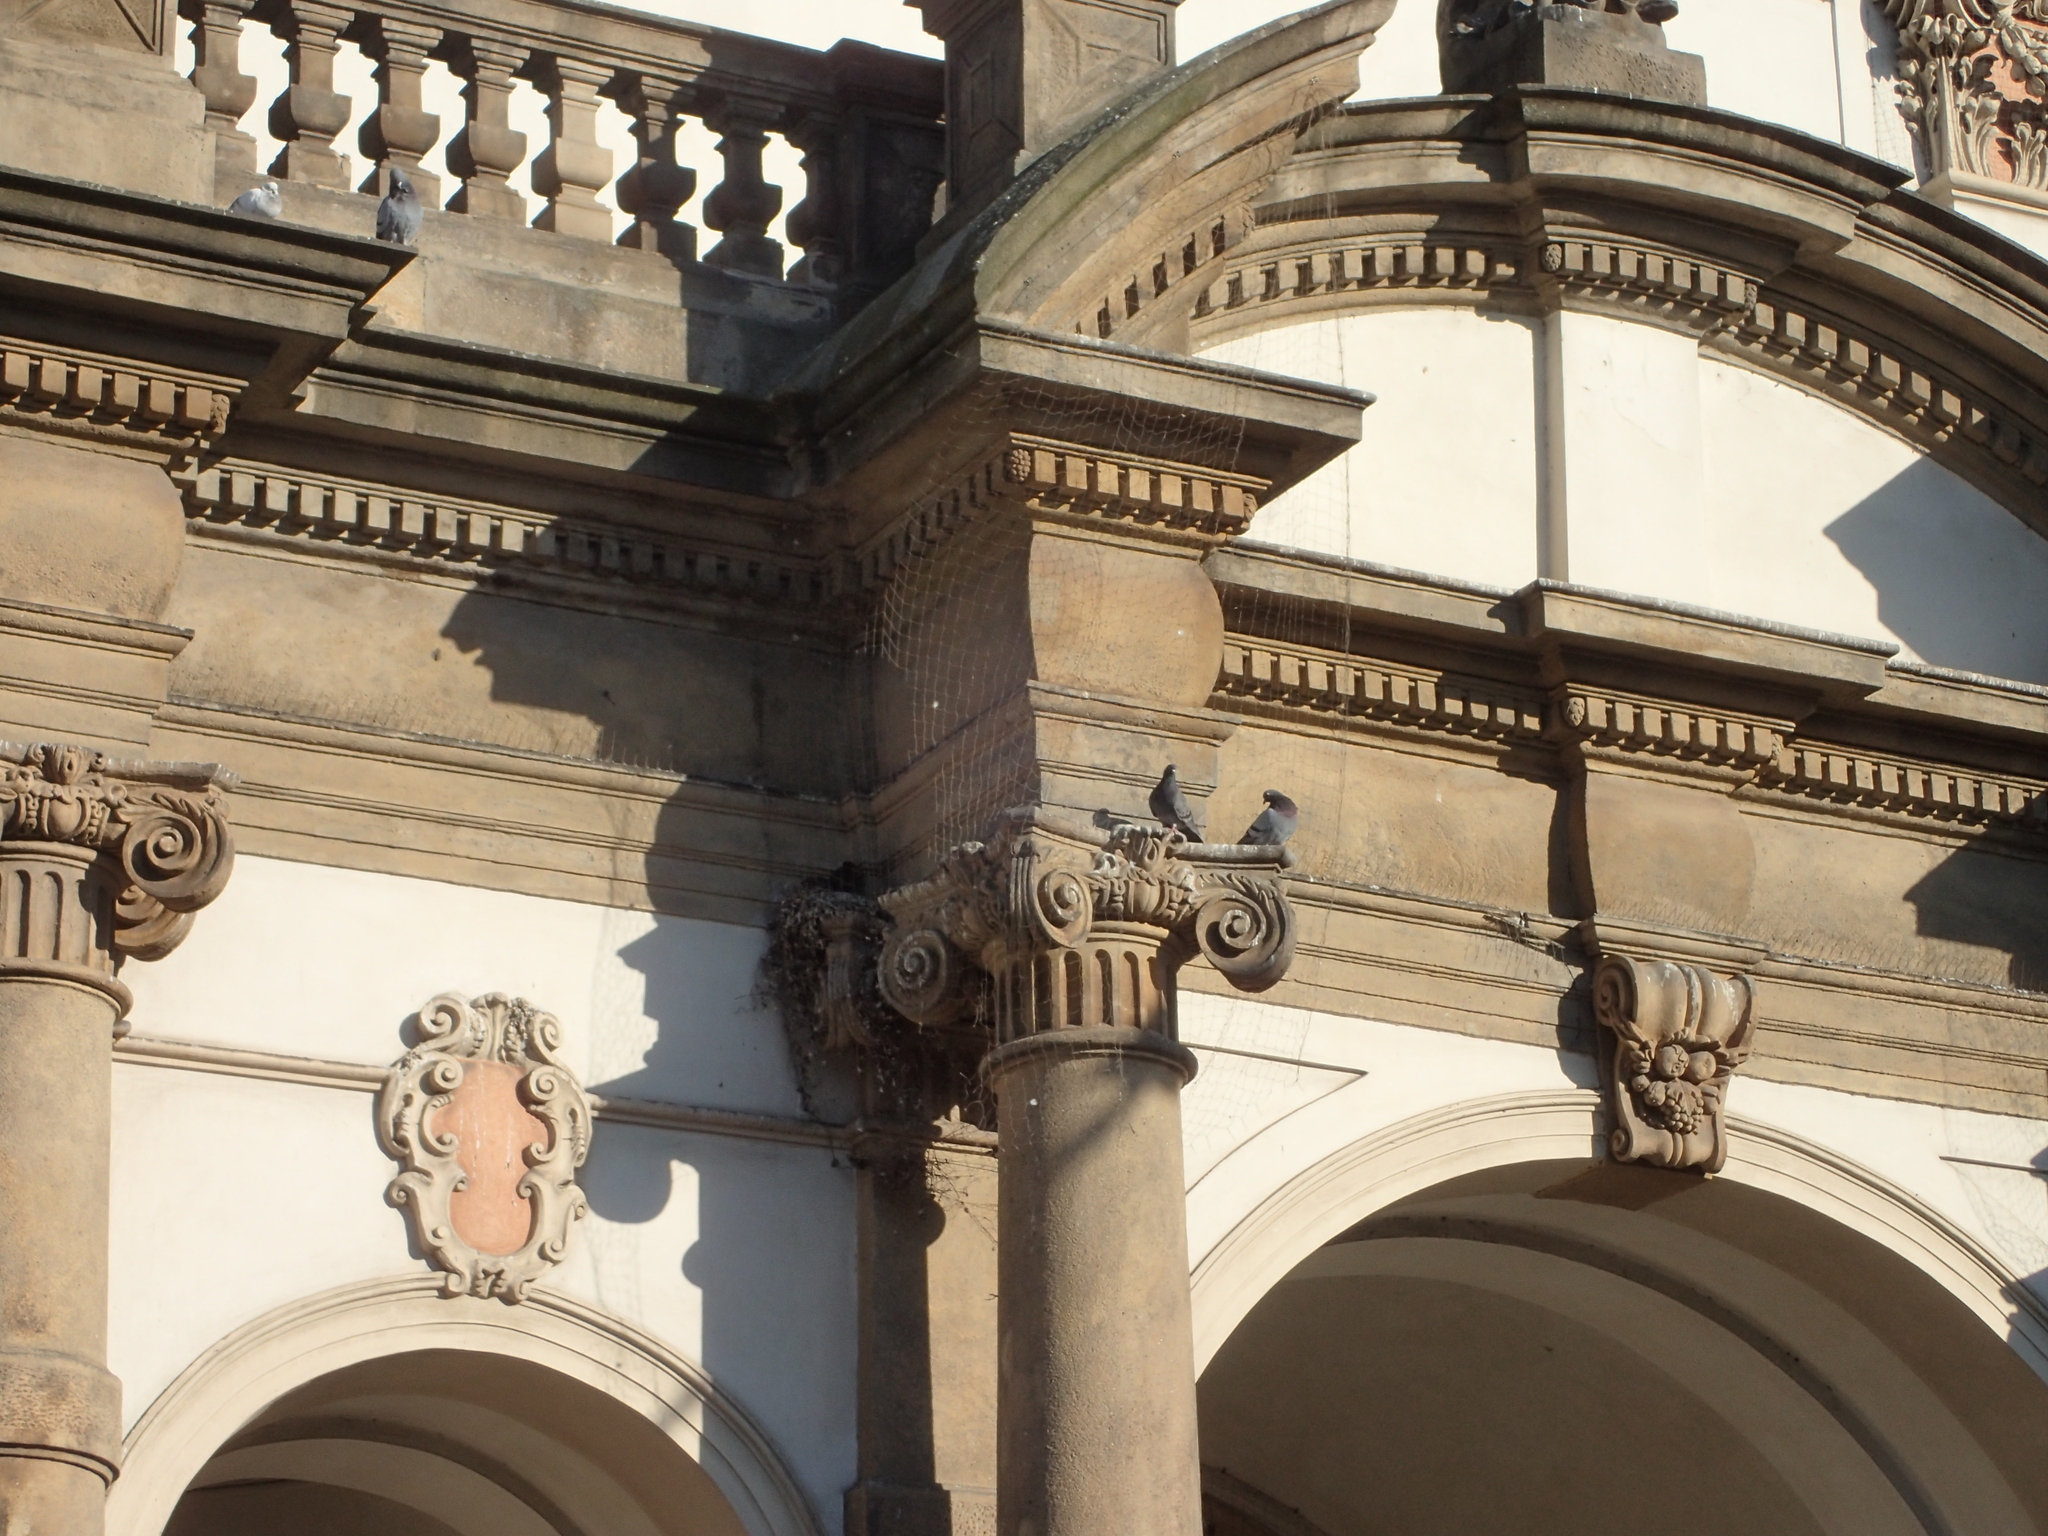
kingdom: Animalia
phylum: Chordata
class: Aves
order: Columbiformes
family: Columbidae
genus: Columba
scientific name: Columba livia
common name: Rock pigeon
